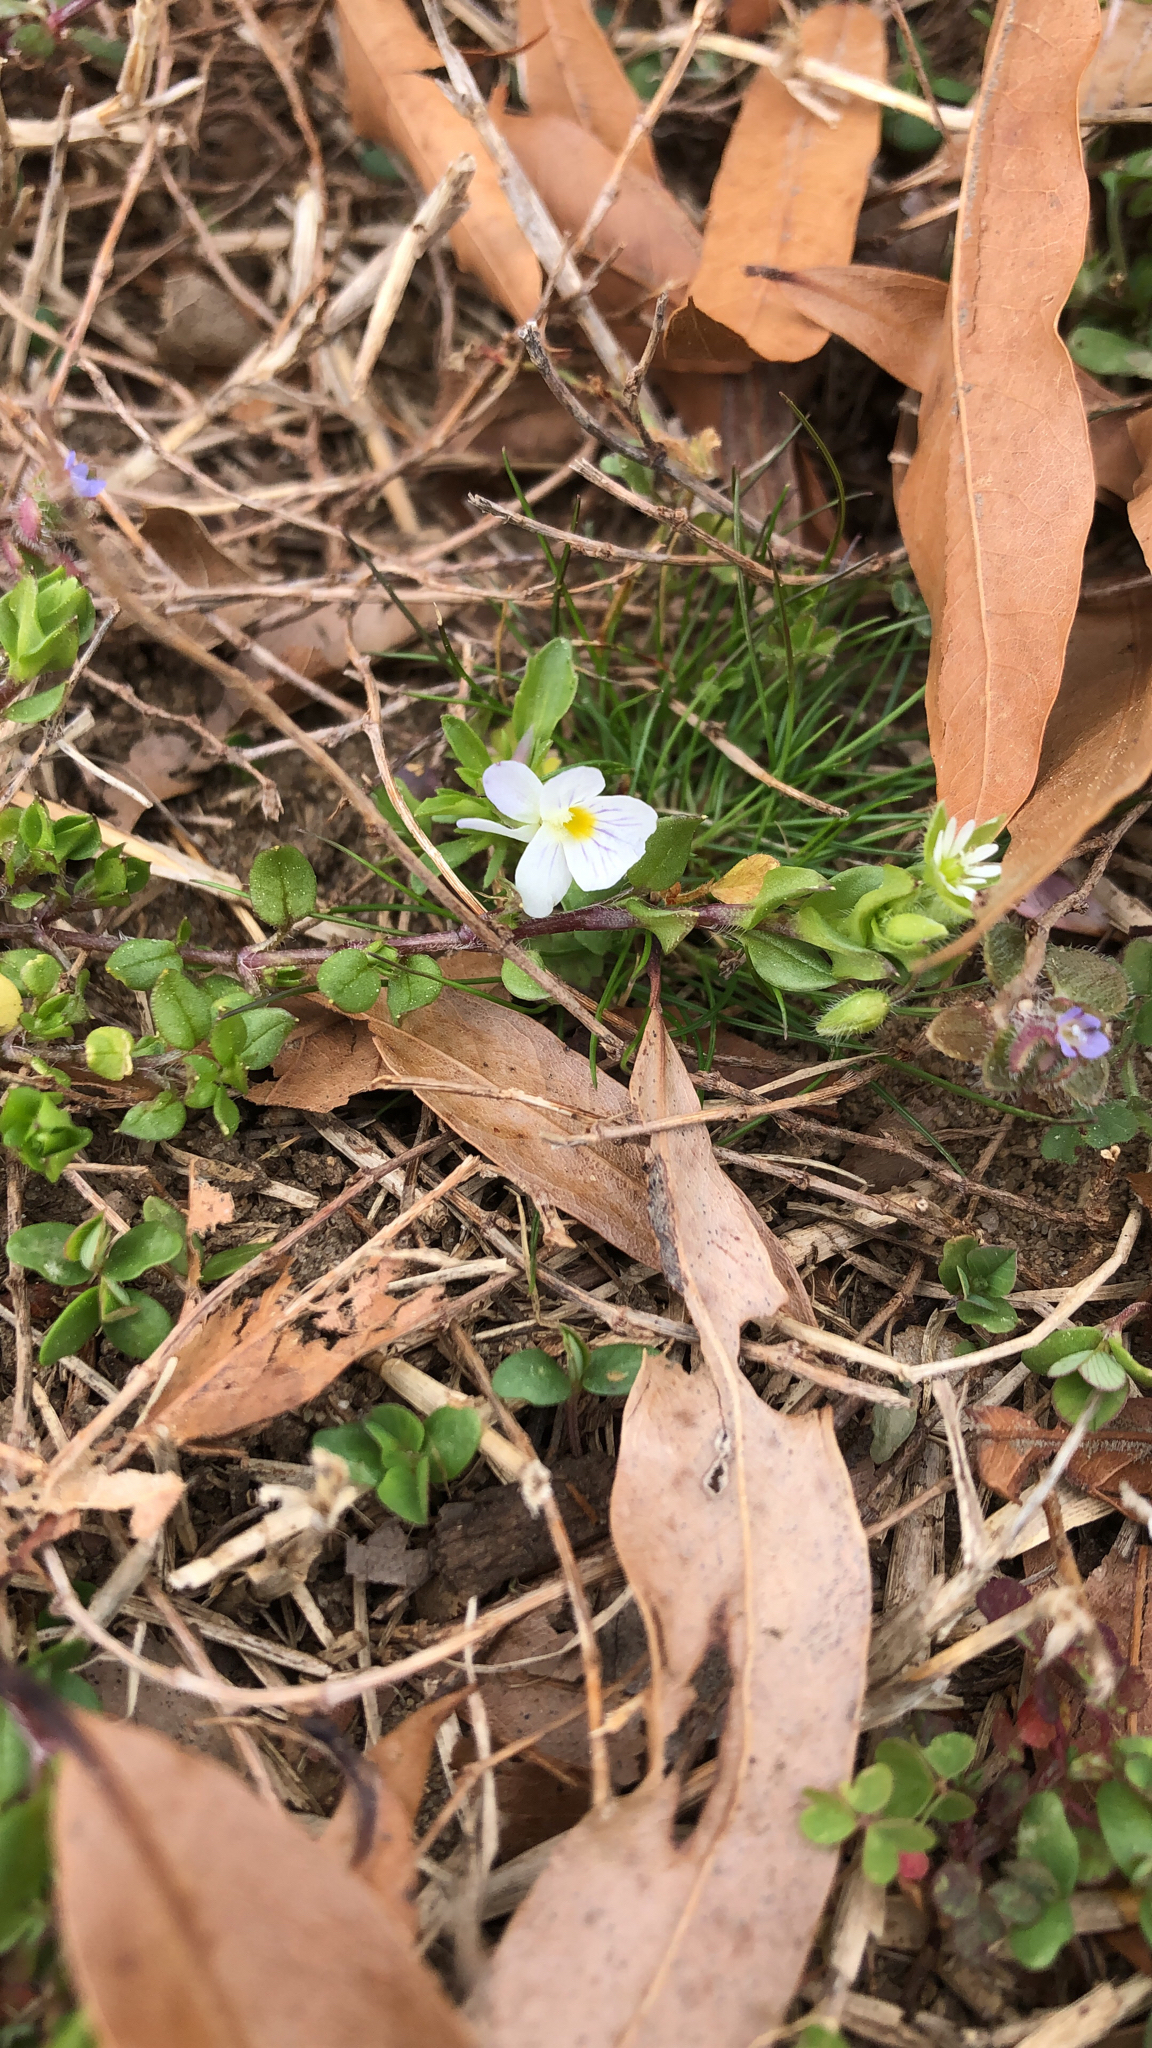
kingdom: Plantae
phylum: Tracheophyta
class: Magnoliopsida
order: Malpighiales
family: Violaceae
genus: Viola
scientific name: Viola rafinesquei
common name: American field pansy
